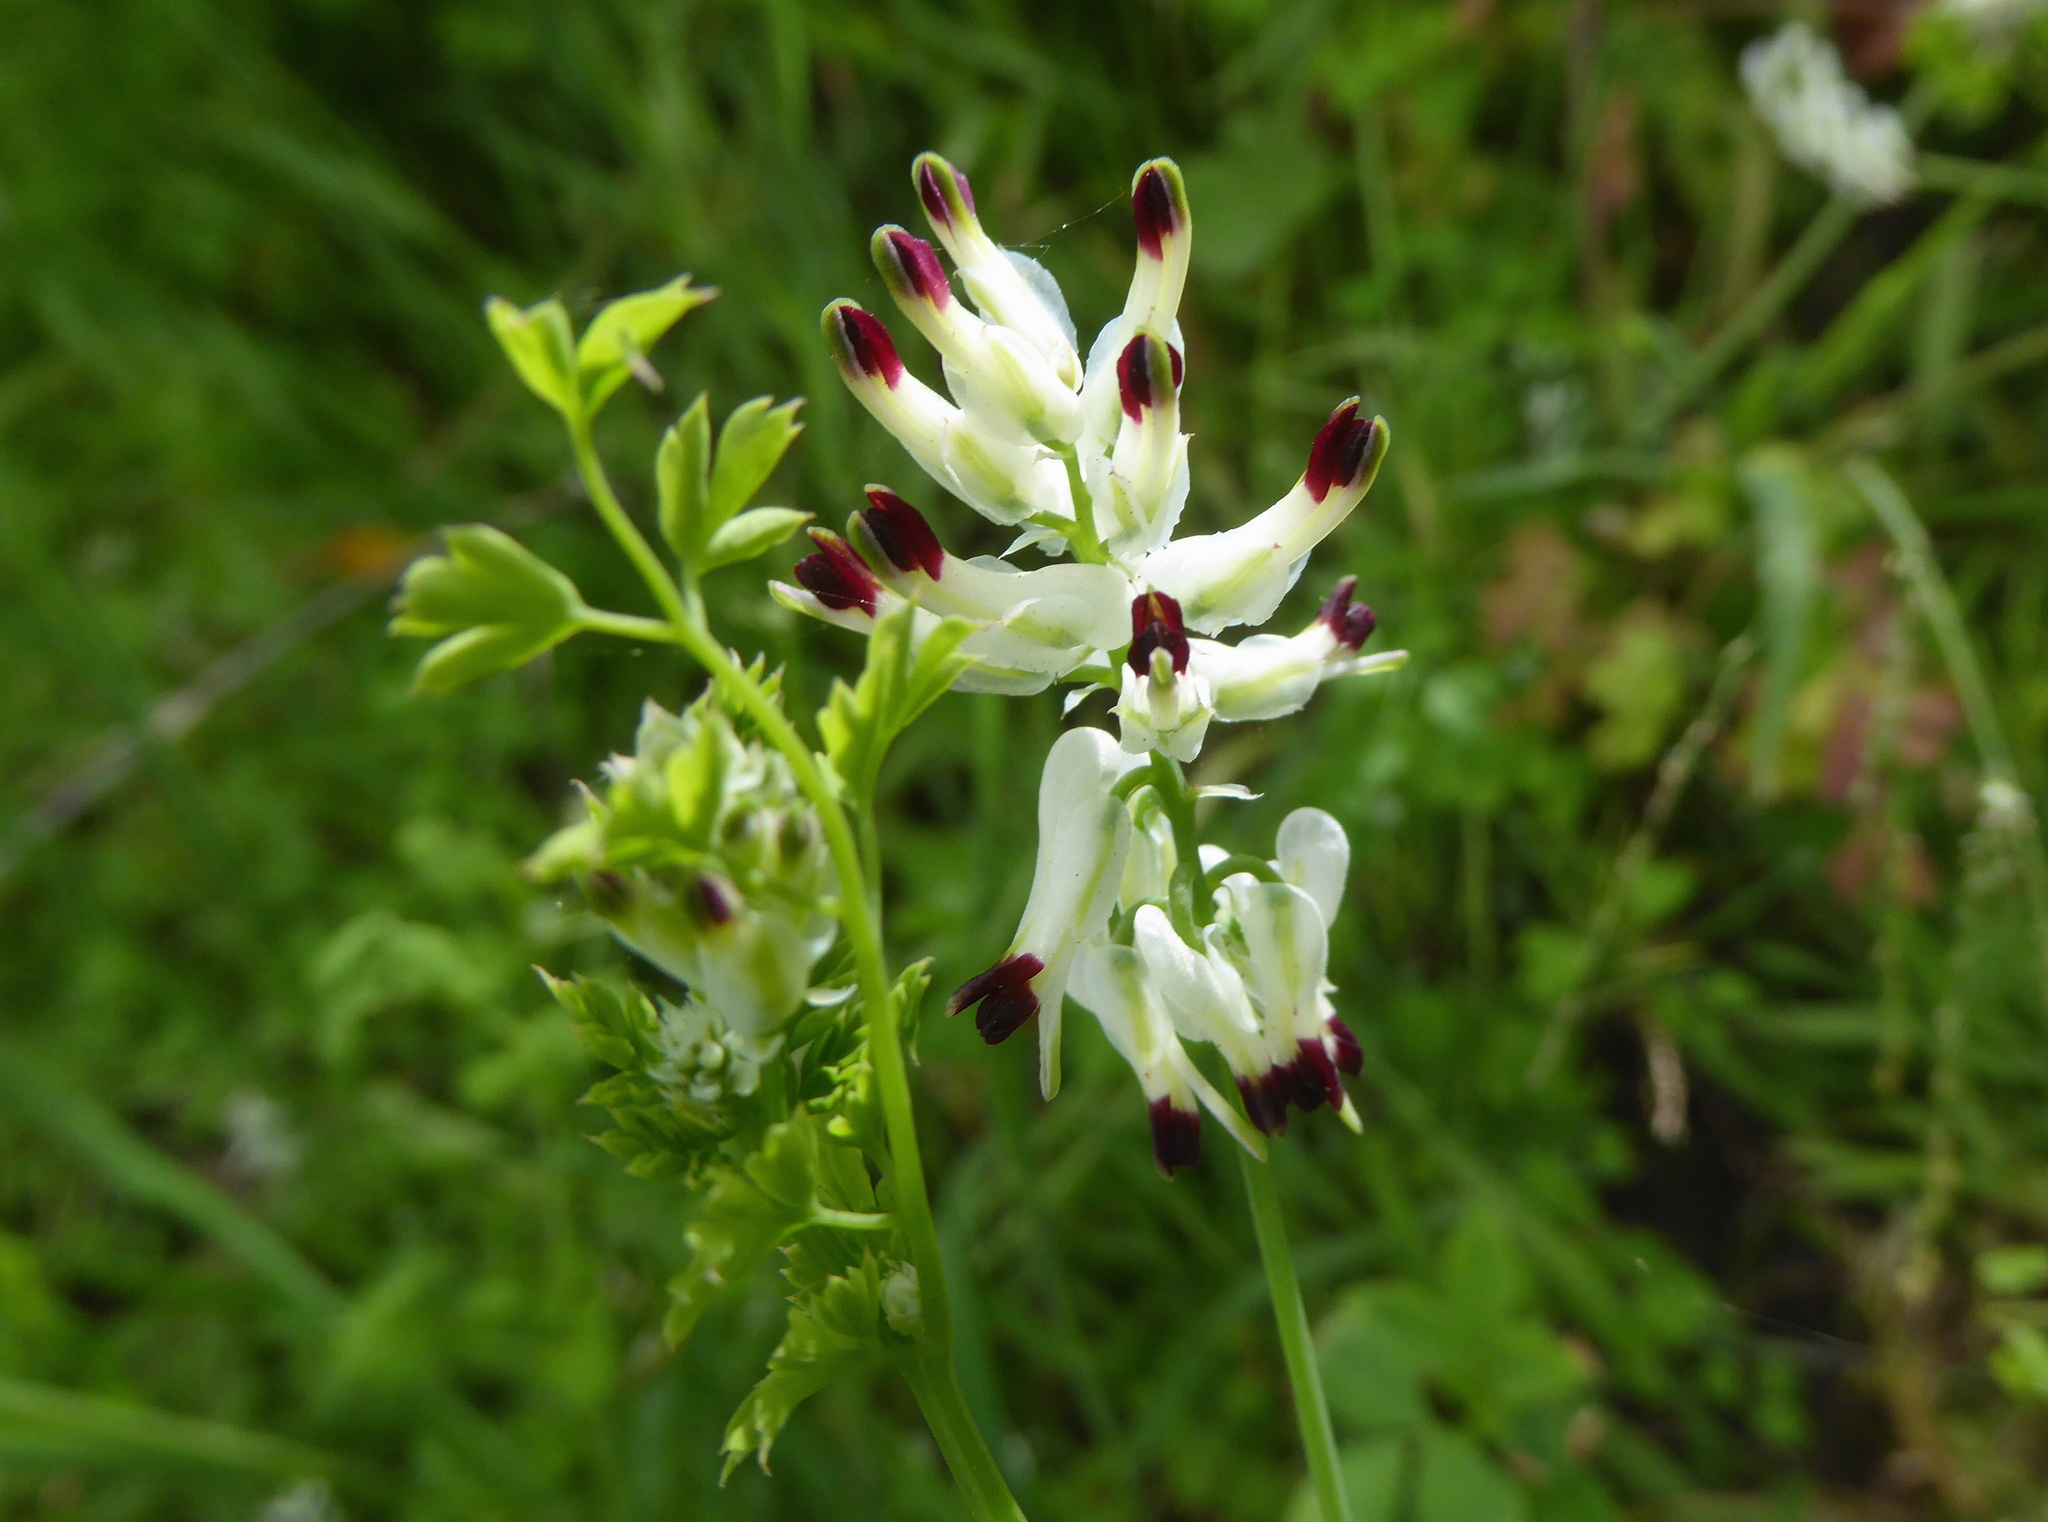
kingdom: Plantae
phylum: Tracheophyta
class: Magnoliopsida
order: Ranunculales
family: Papaveraceae
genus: Fumaria
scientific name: Fumaria capreolata
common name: White ramping-fumitory
